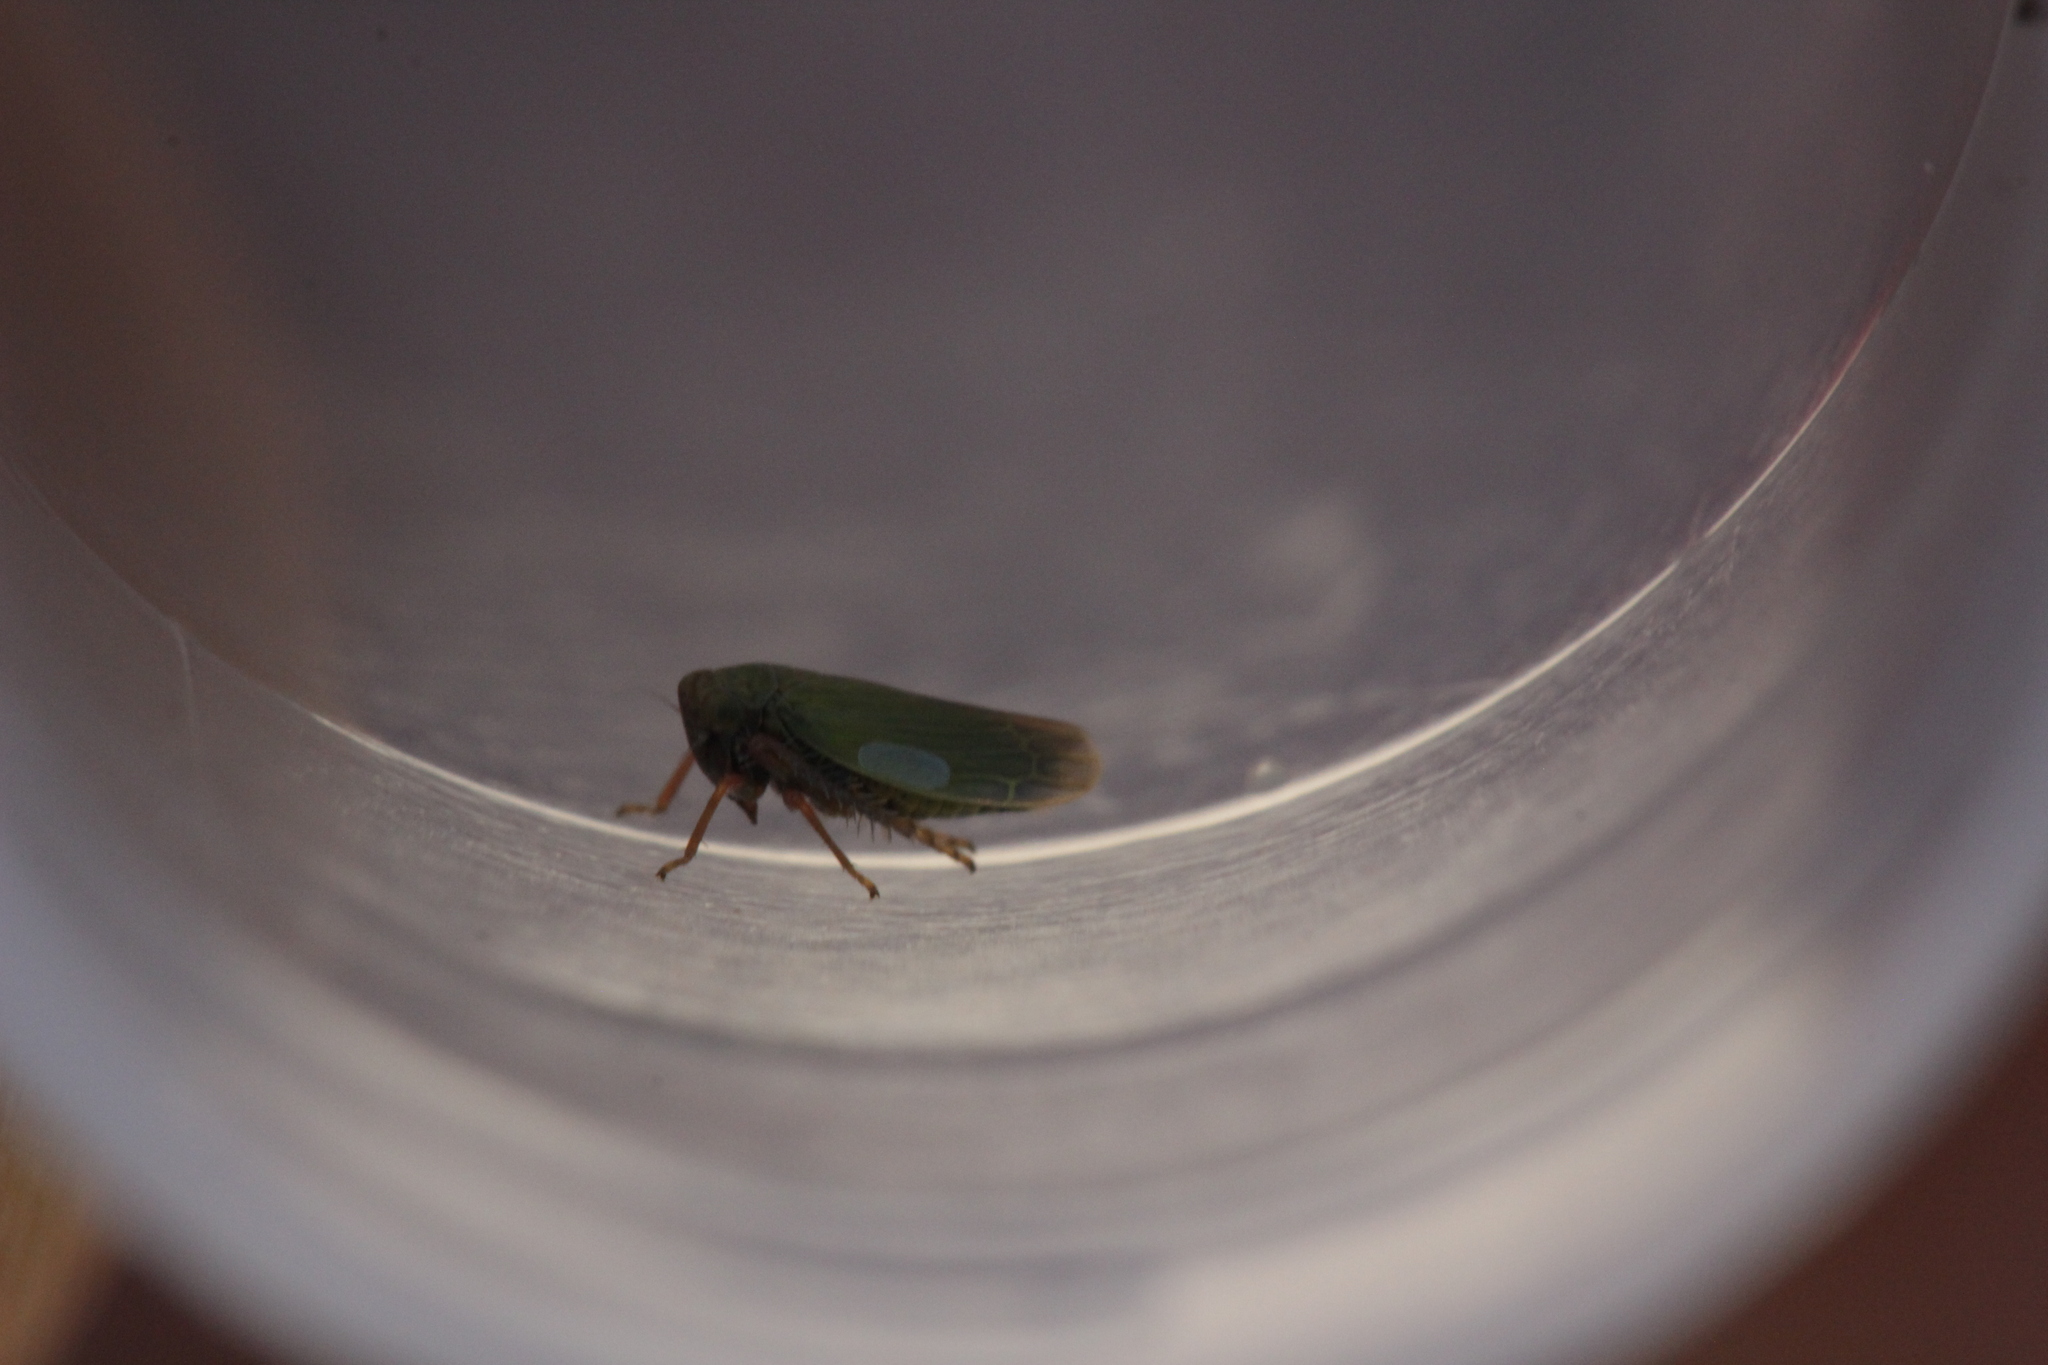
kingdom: Animalia
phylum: Arthropoda
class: Insecta
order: Hemiptera
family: Cicadellidae
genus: Erythria
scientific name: Erythria aureola
